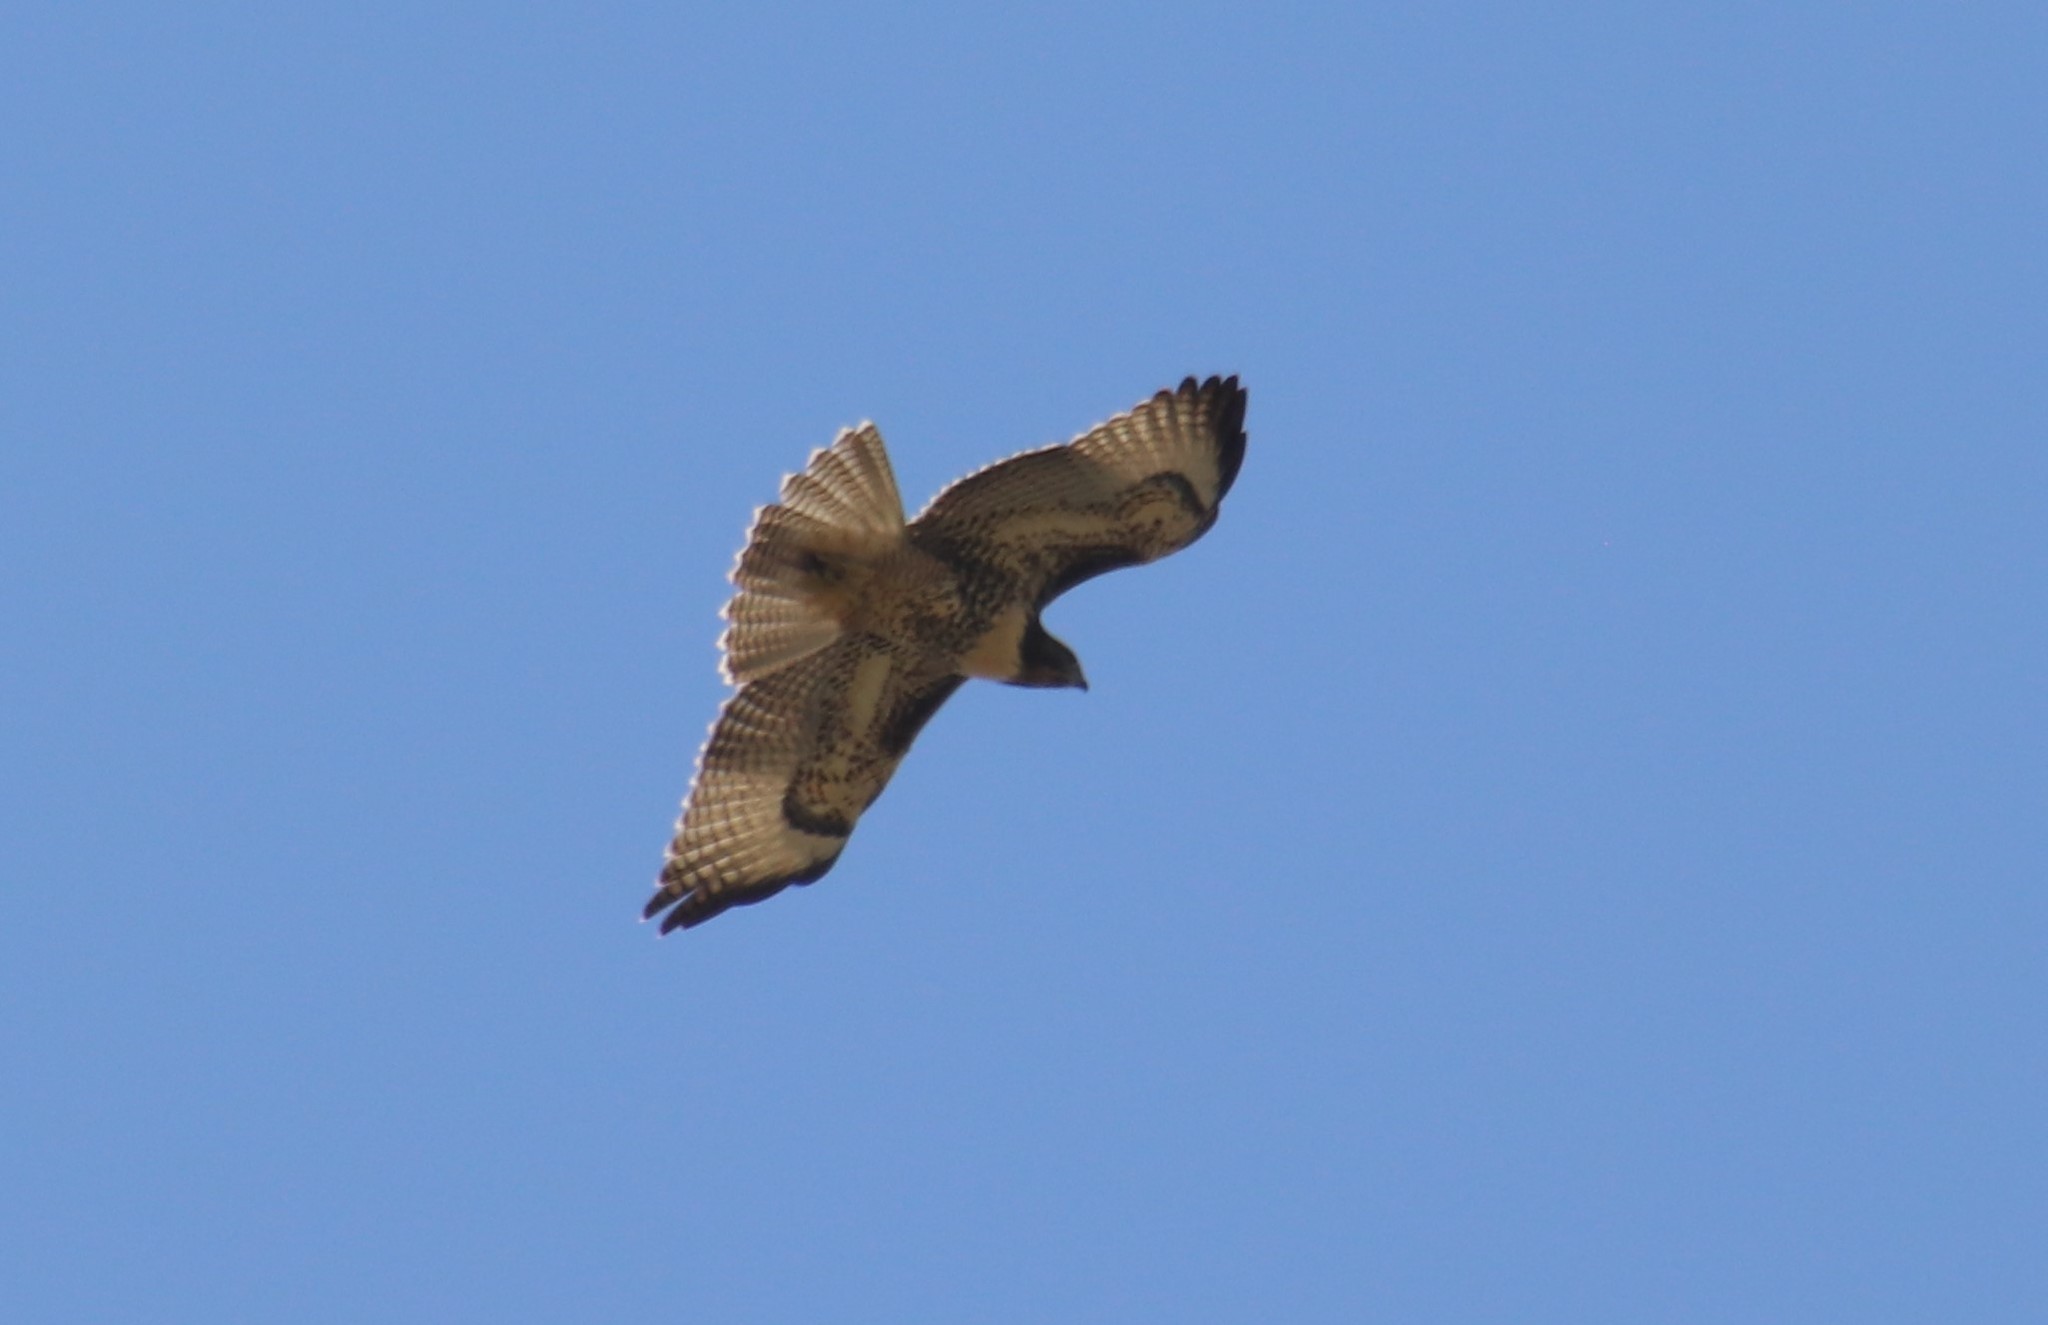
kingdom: Animalia
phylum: Chordata
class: Aves
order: Accipitriformes
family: Accipitridae
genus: Buteo
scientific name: Buteo jamaicensis
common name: Red-tailed hawk
